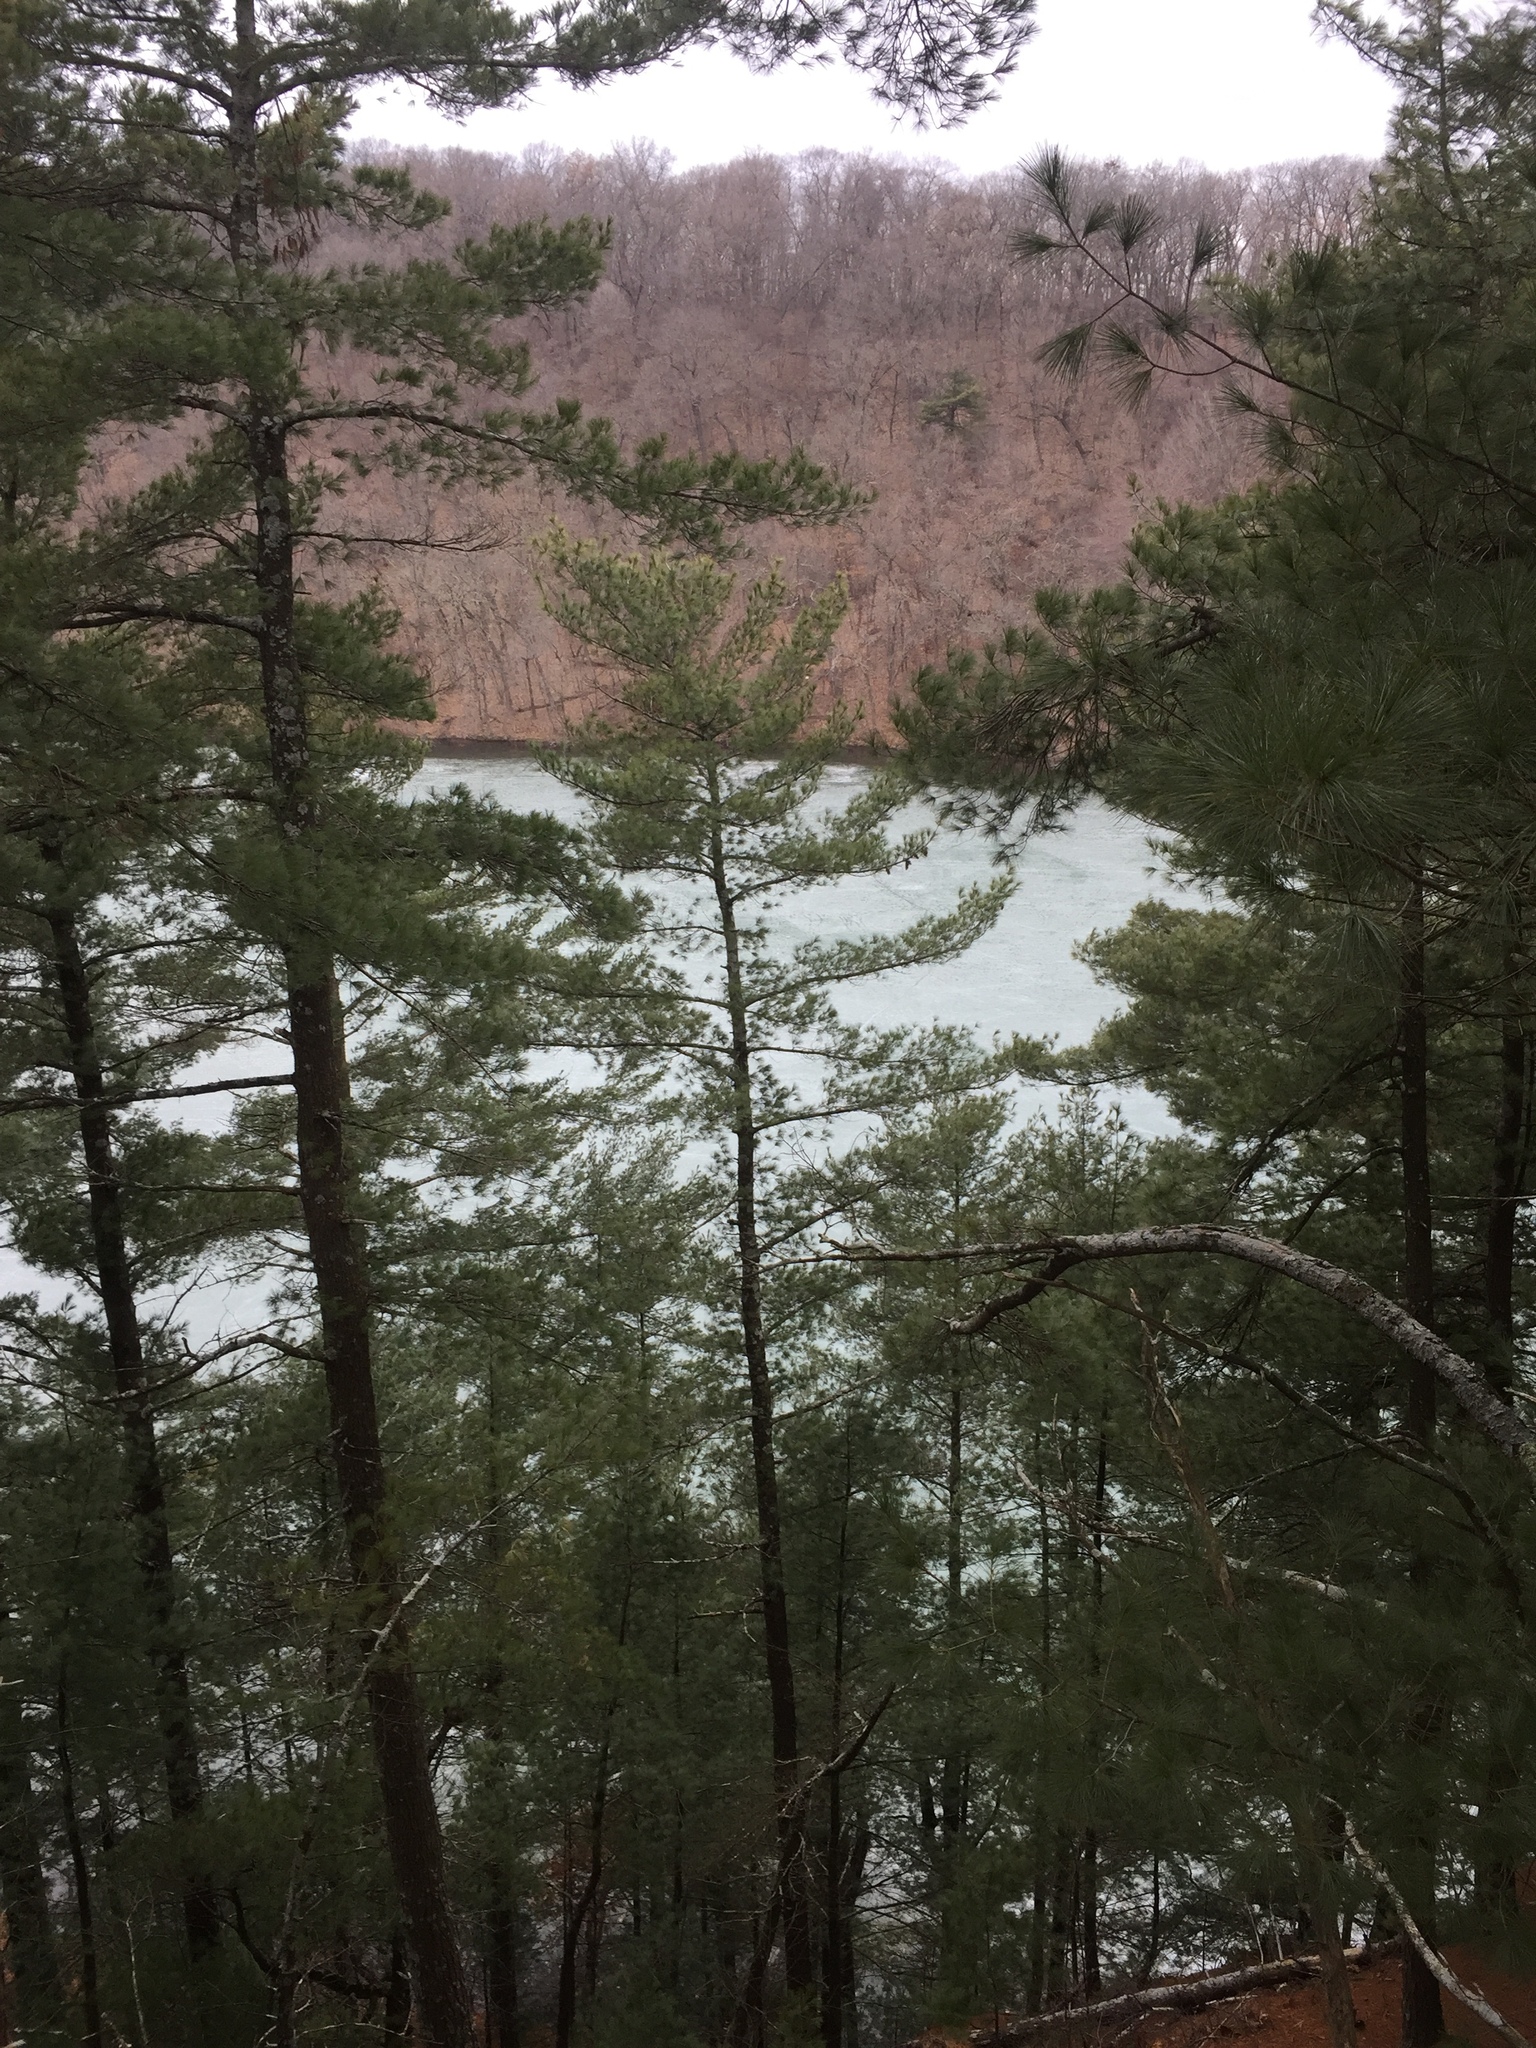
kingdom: Plantae
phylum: Tracheophyta
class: Pinopsida
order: Pinales
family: Pinaceae
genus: Pinus
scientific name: Pinus strobus
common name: Weymouth pine
